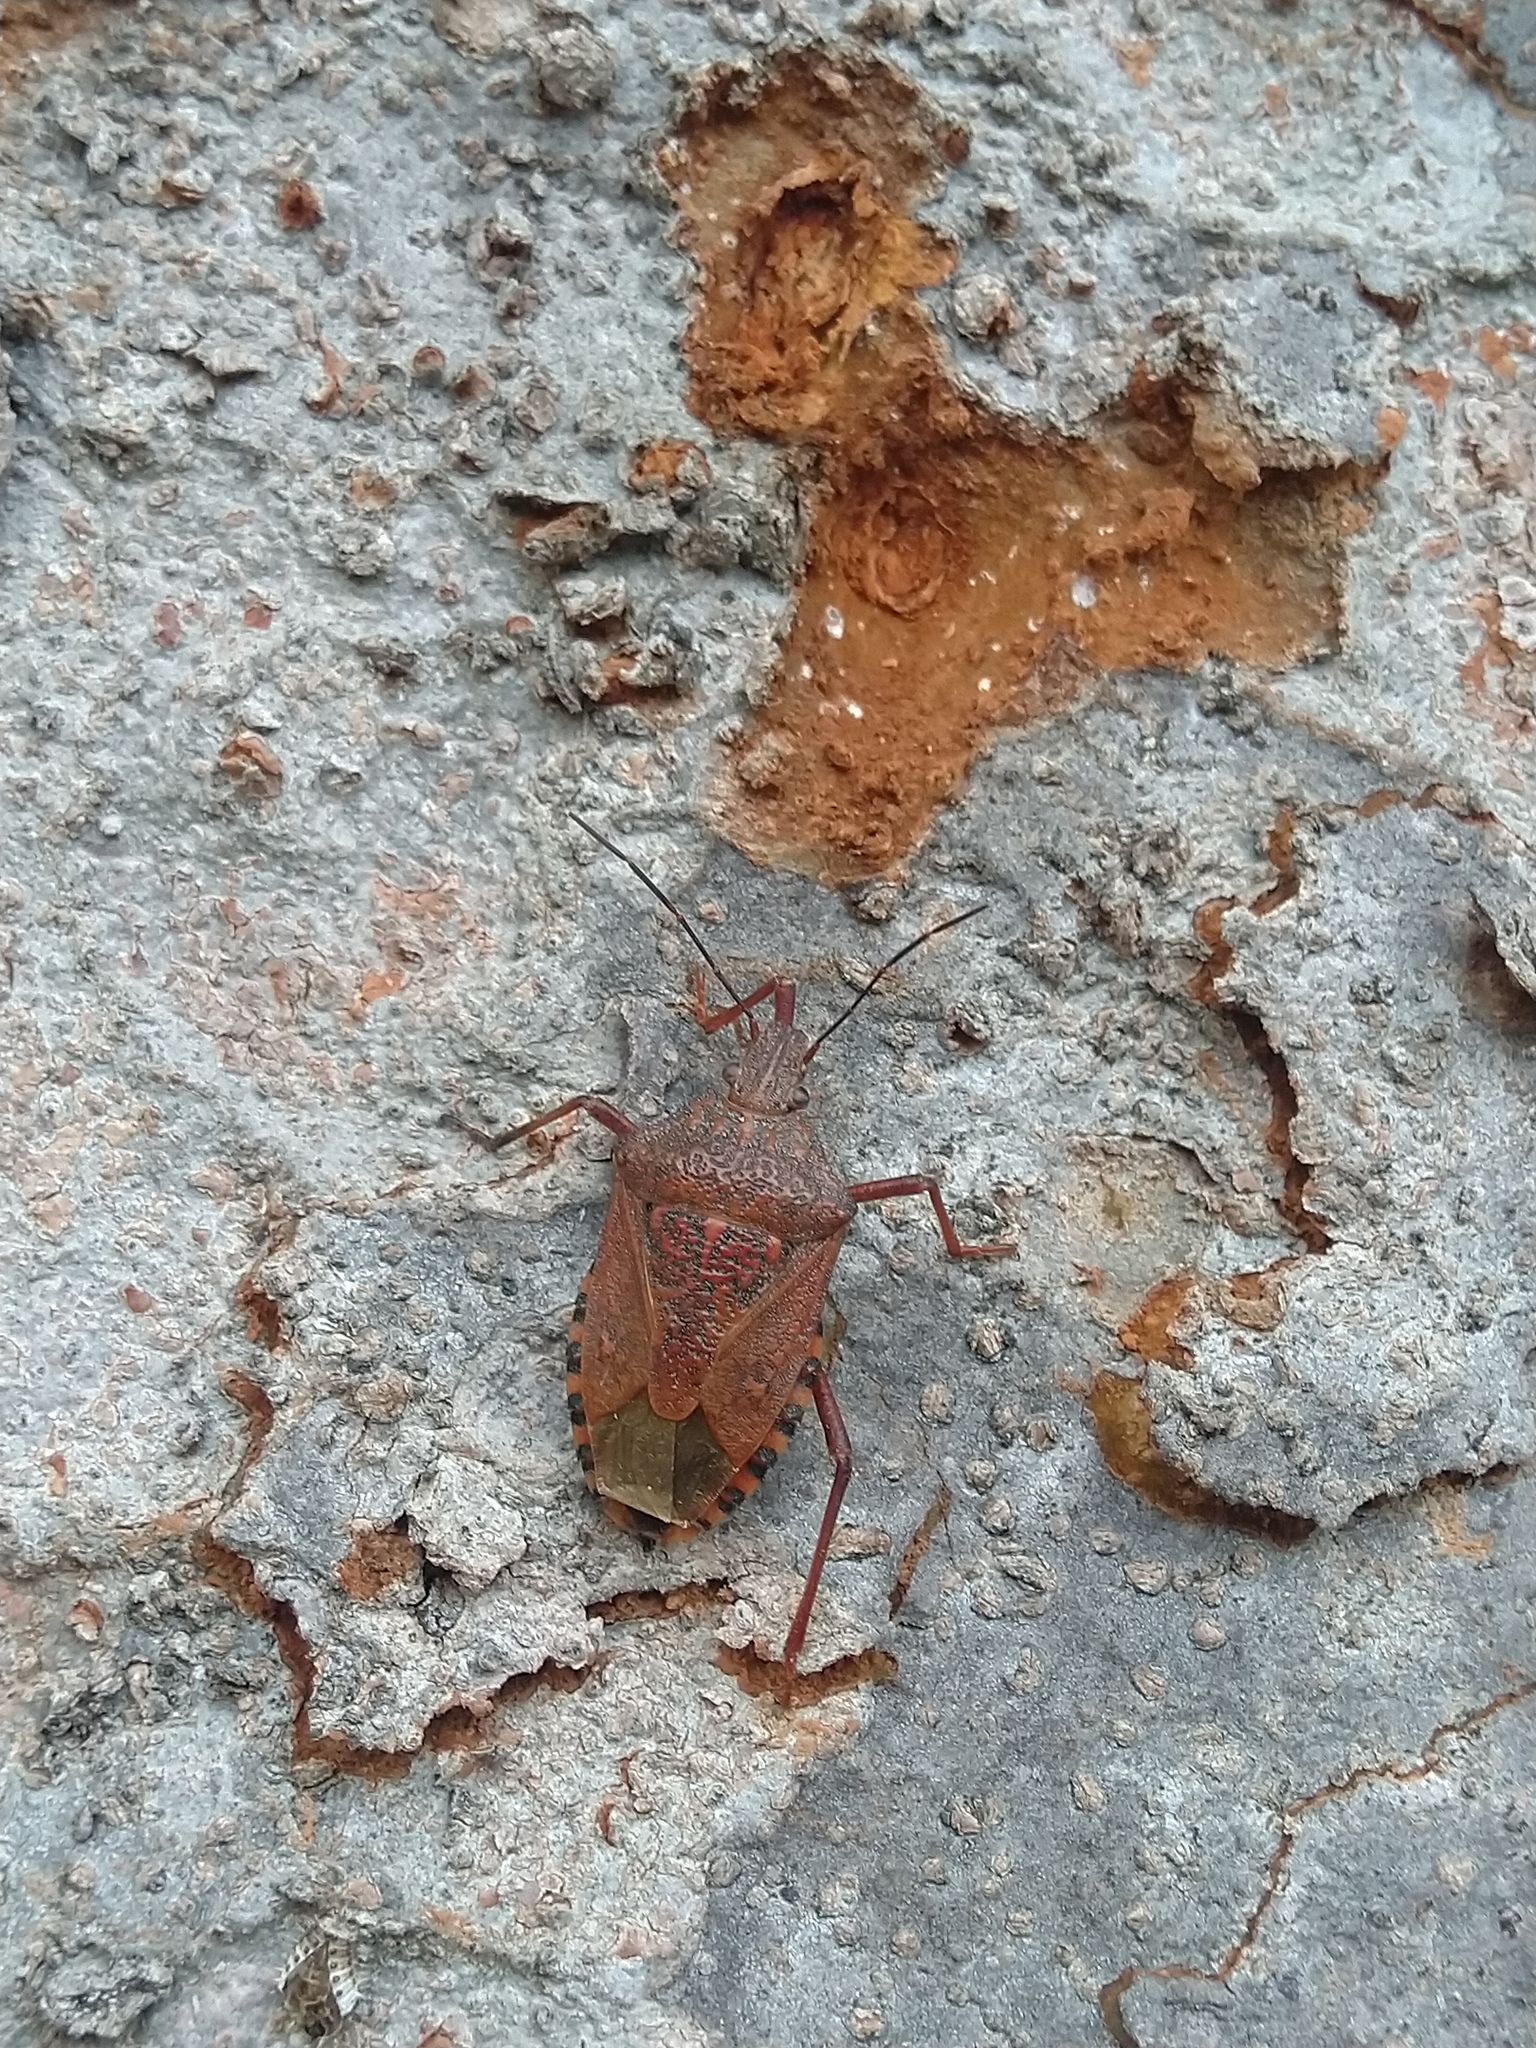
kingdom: Animalia
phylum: Arthropoda
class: Insecta
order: Hemiptera
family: Pentatomidae
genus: Apodiphus
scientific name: Apodiphus
